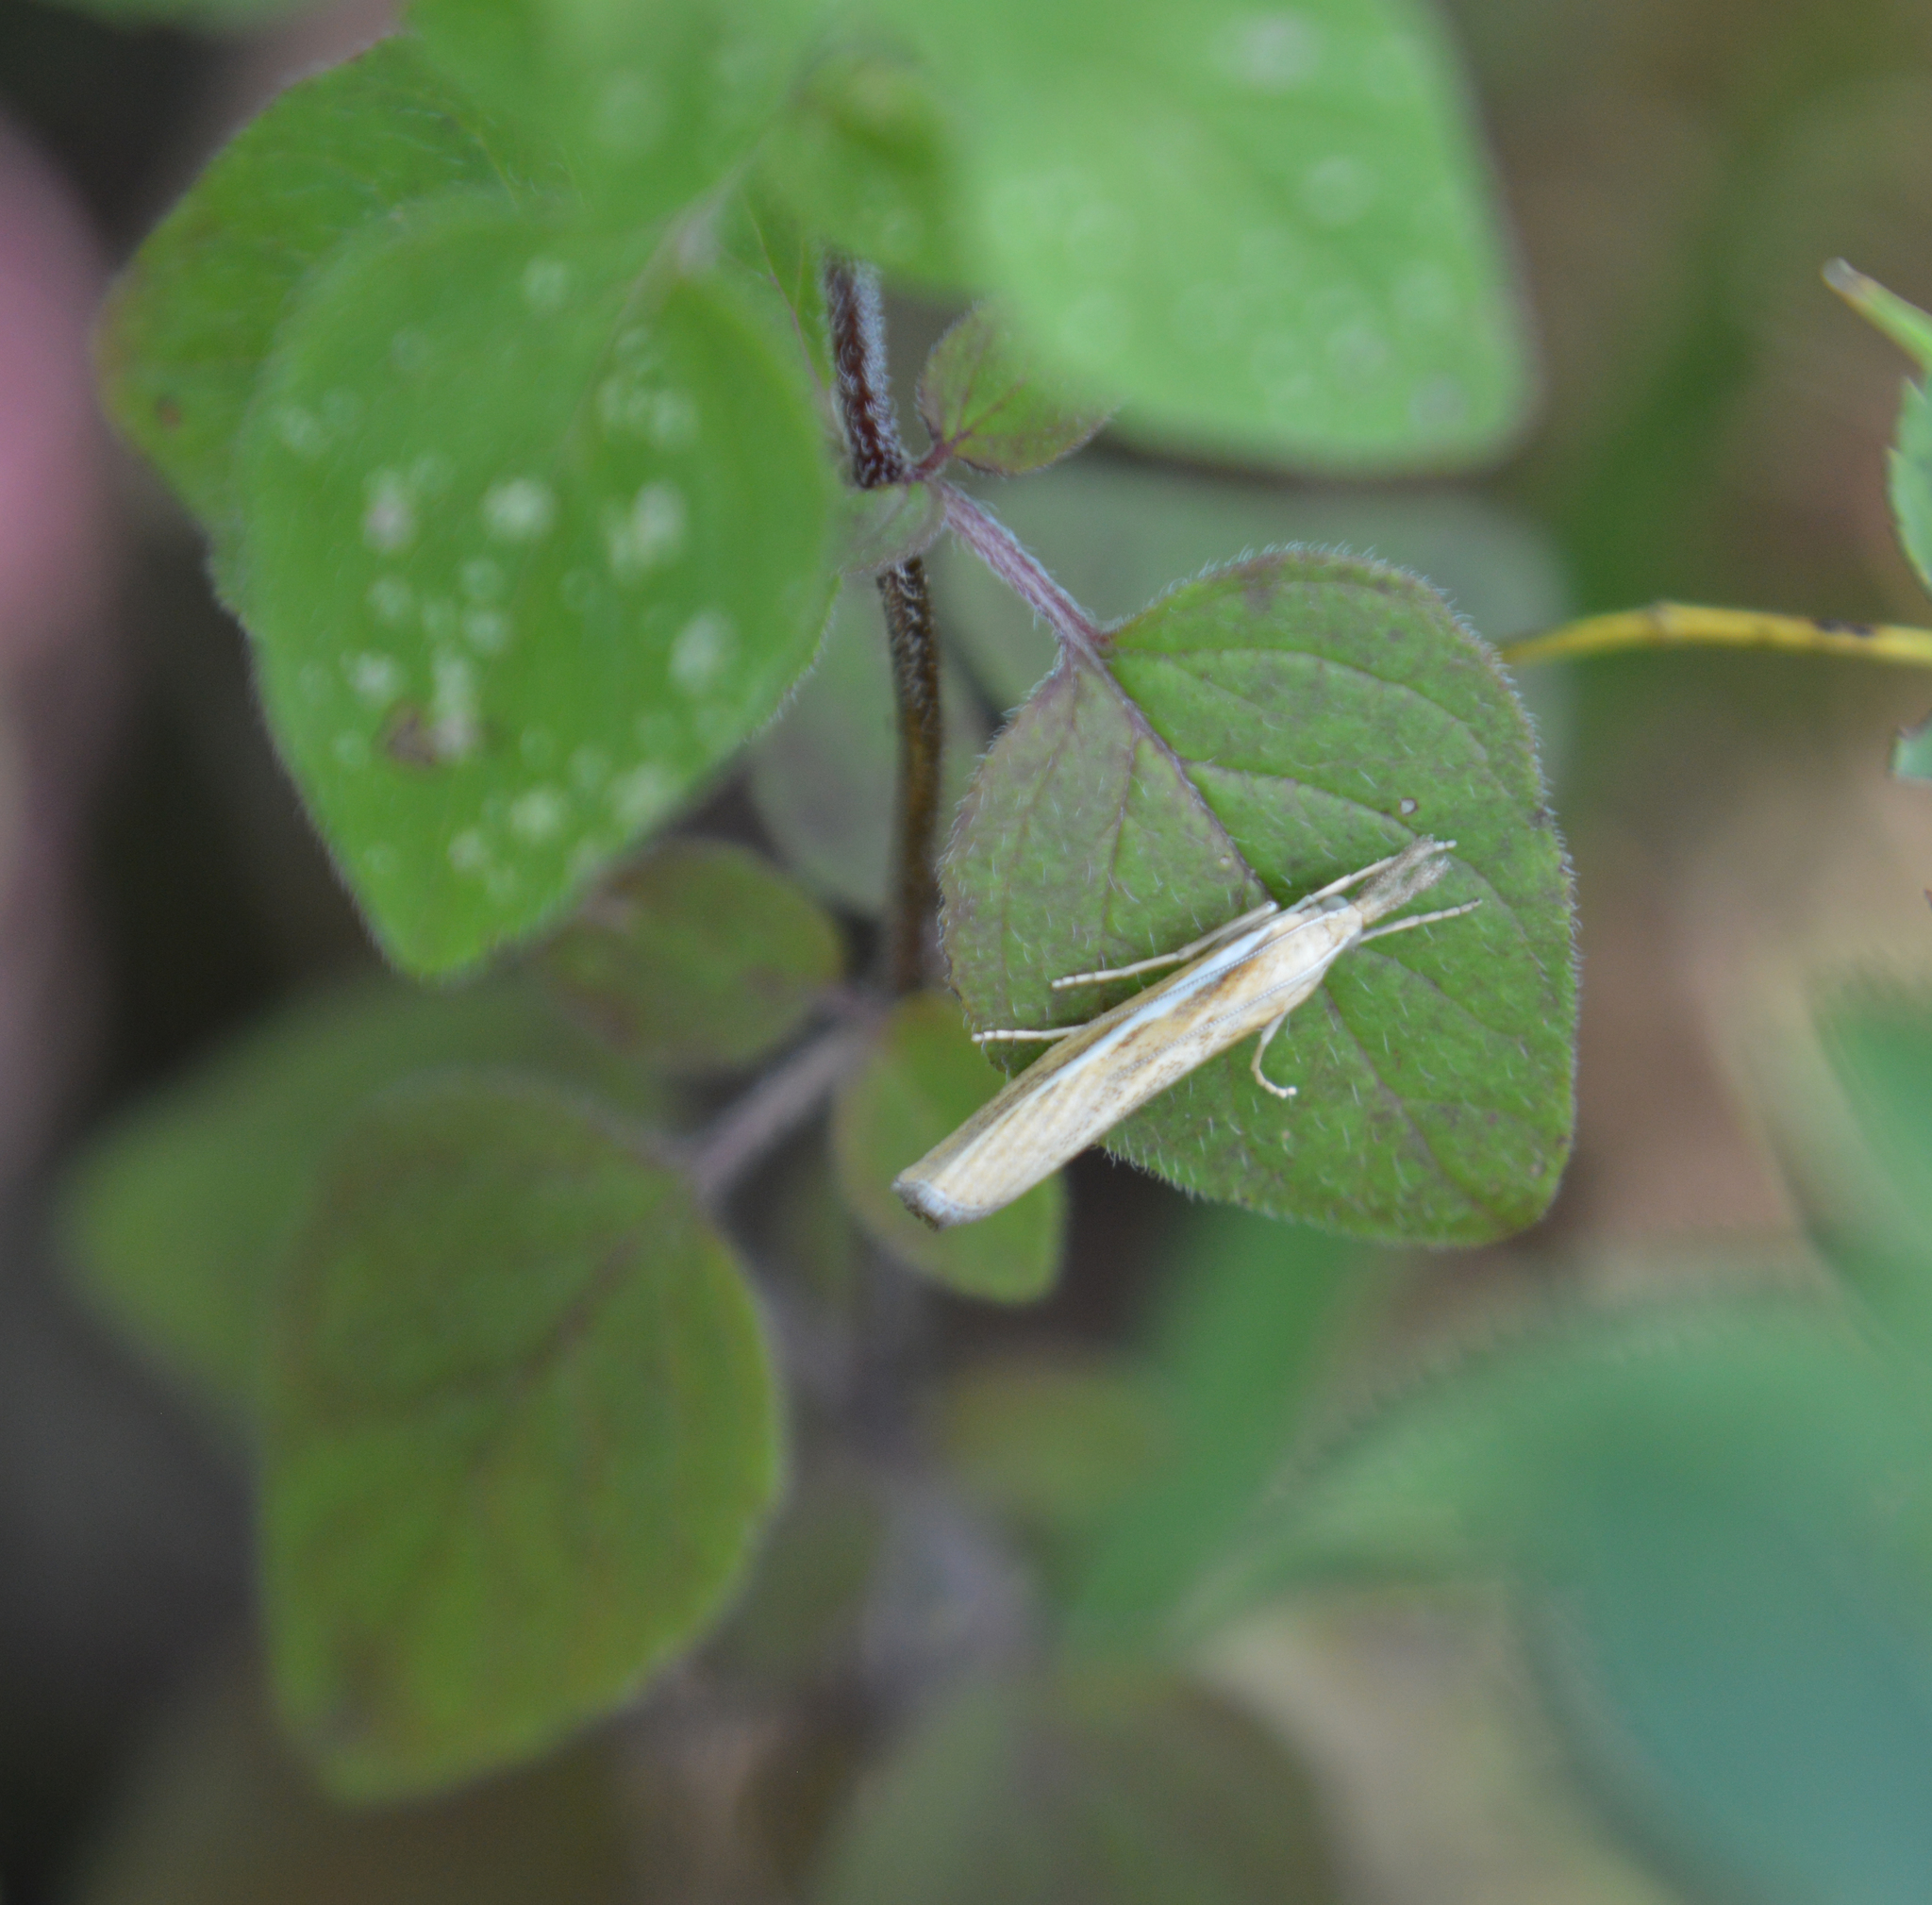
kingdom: Animalia
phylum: Arthropoda
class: Insecta
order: Lepidoptera
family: Crambidae
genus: Agriphila
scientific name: Agriphila tristellus
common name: Common grass-veneer
